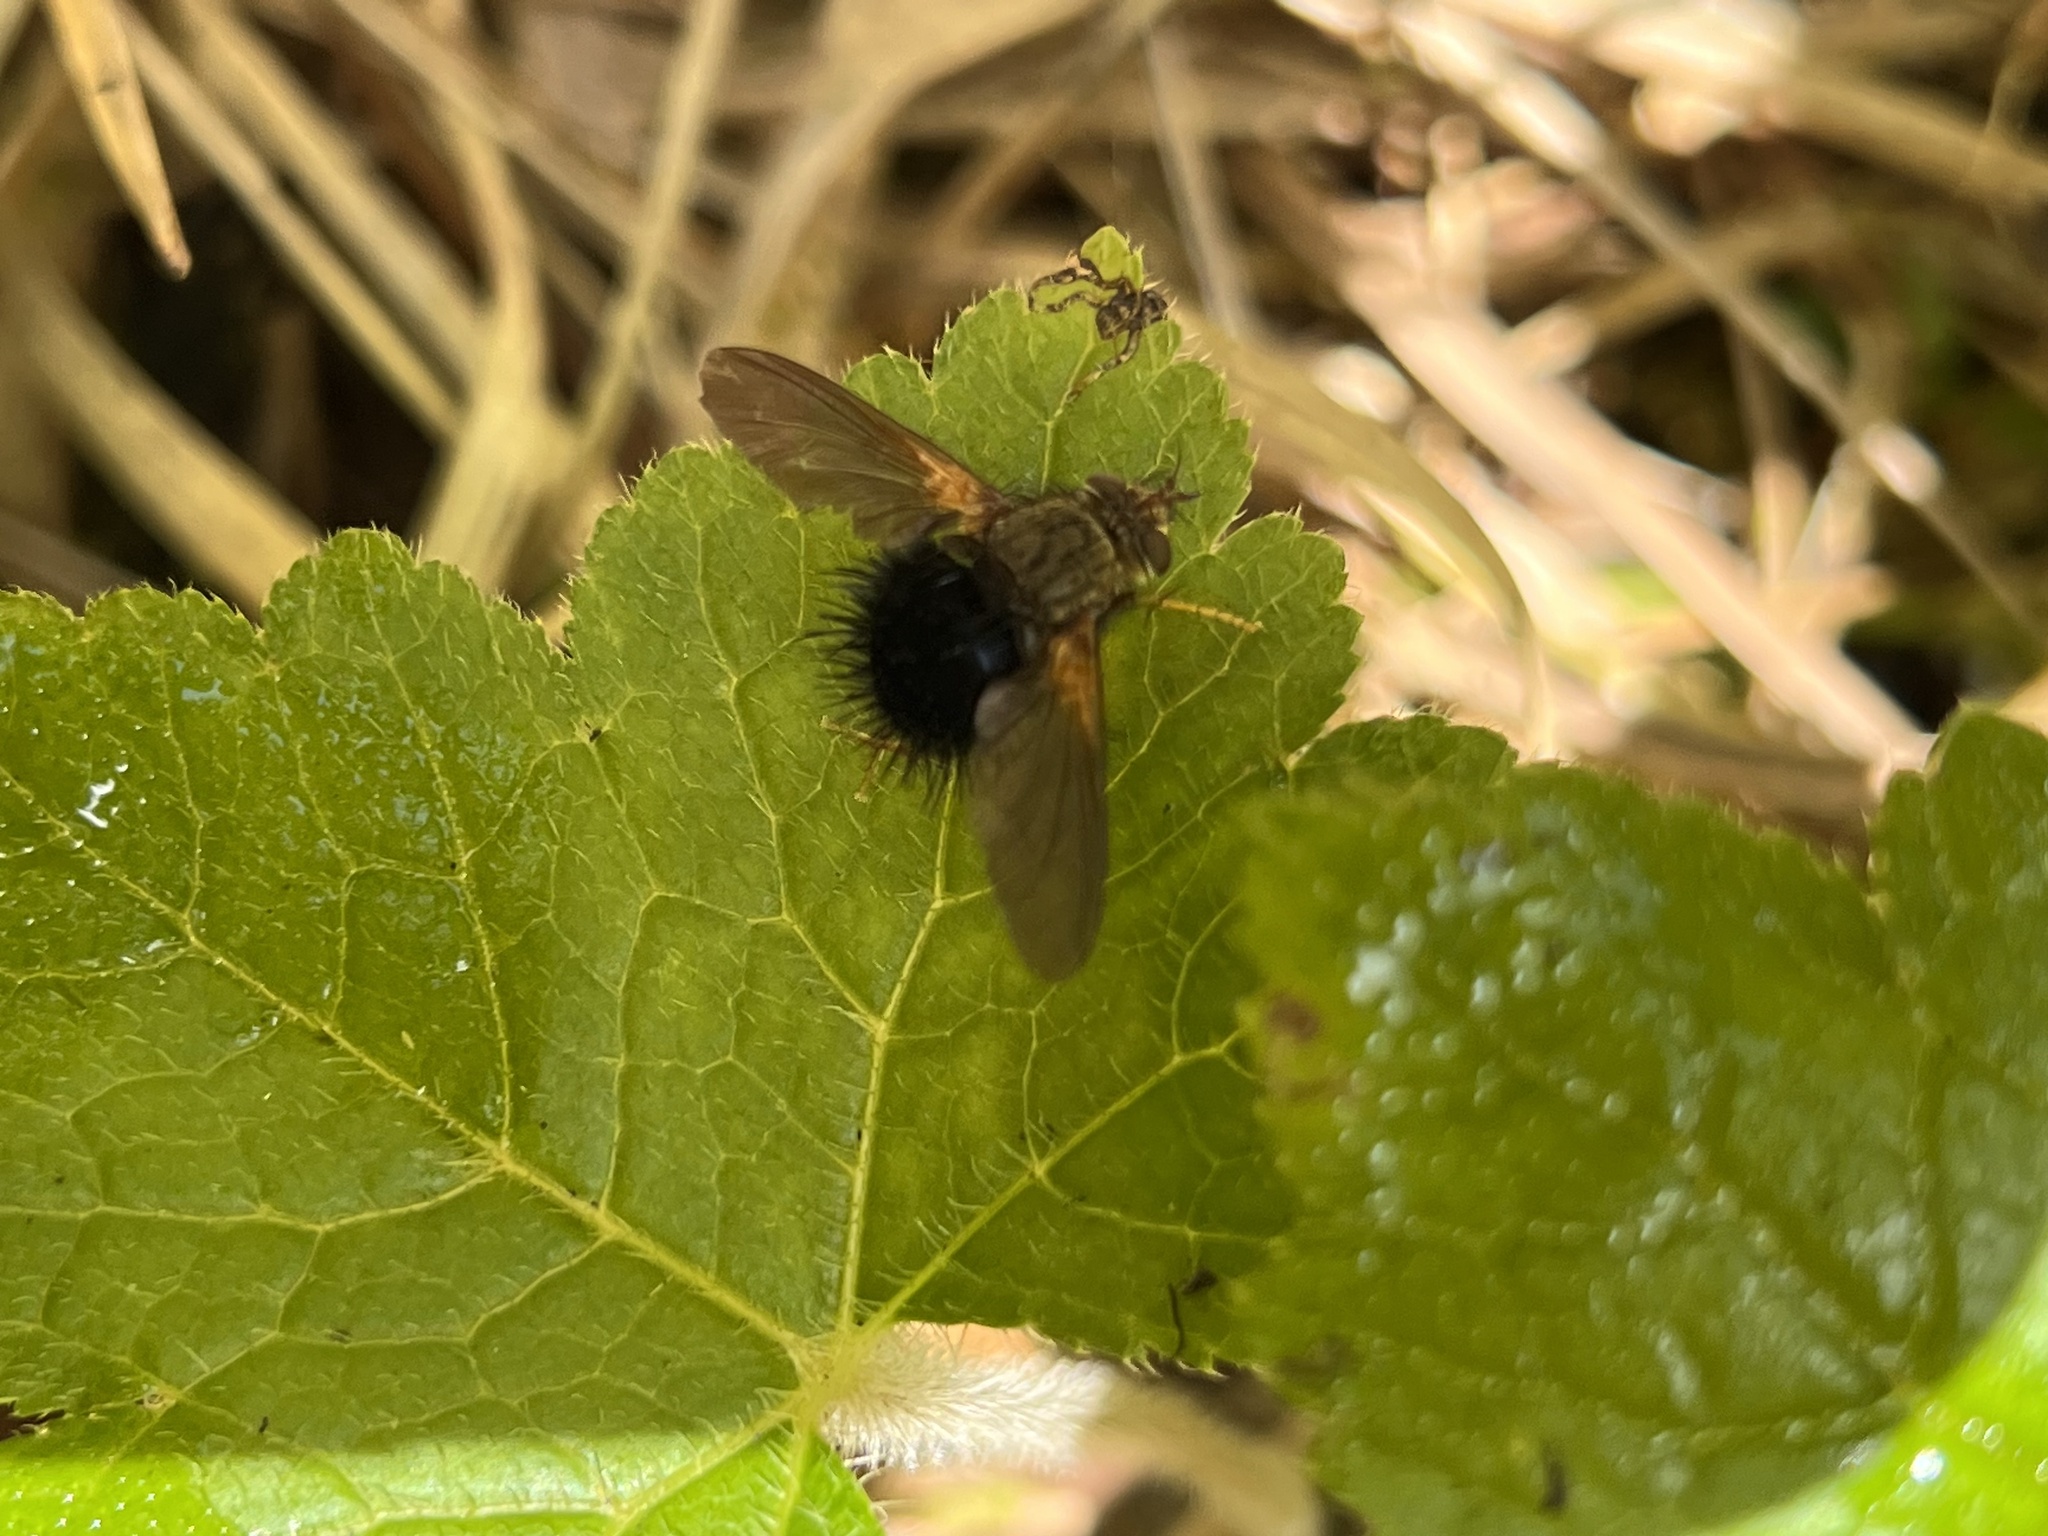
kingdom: Animalia
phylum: Arthropoda
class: Insecta
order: Diptera
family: Tachinidae
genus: Archytas
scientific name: Archytas apicifer
